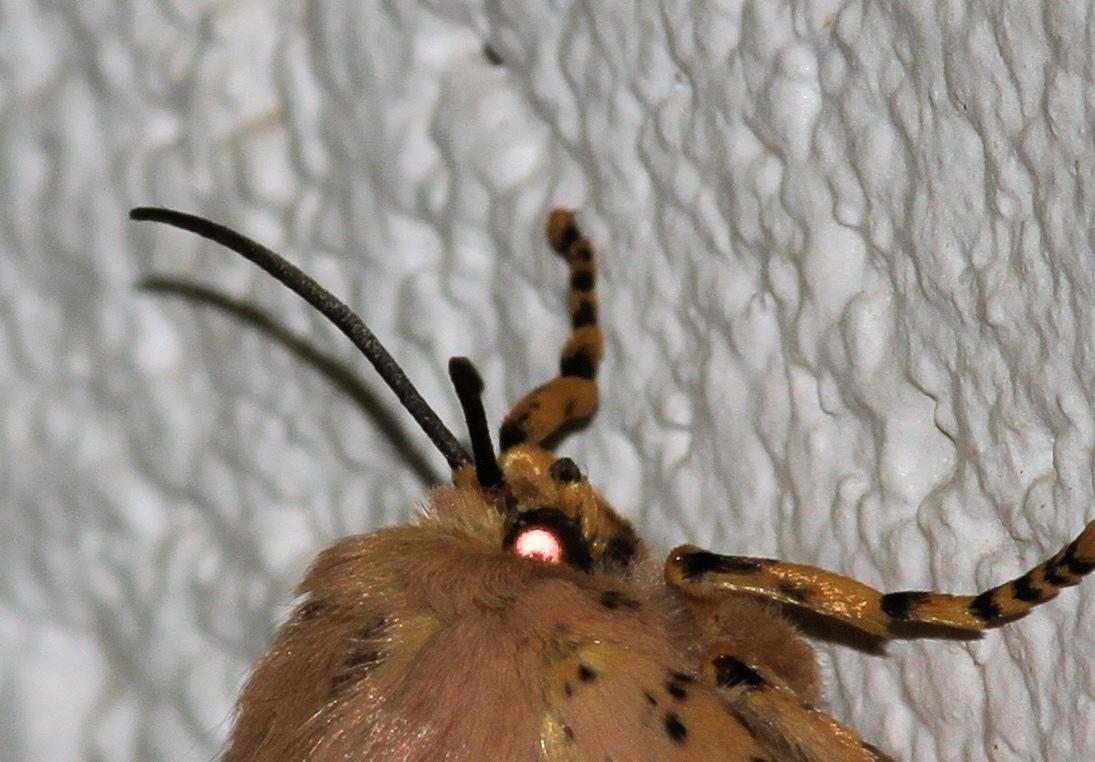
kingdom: Animalia
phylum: Arthropoda
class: Insecta
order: Lepidoptera
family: Limacodidae
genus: Chrysopoloma
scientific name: Chrysopoloma restricta
